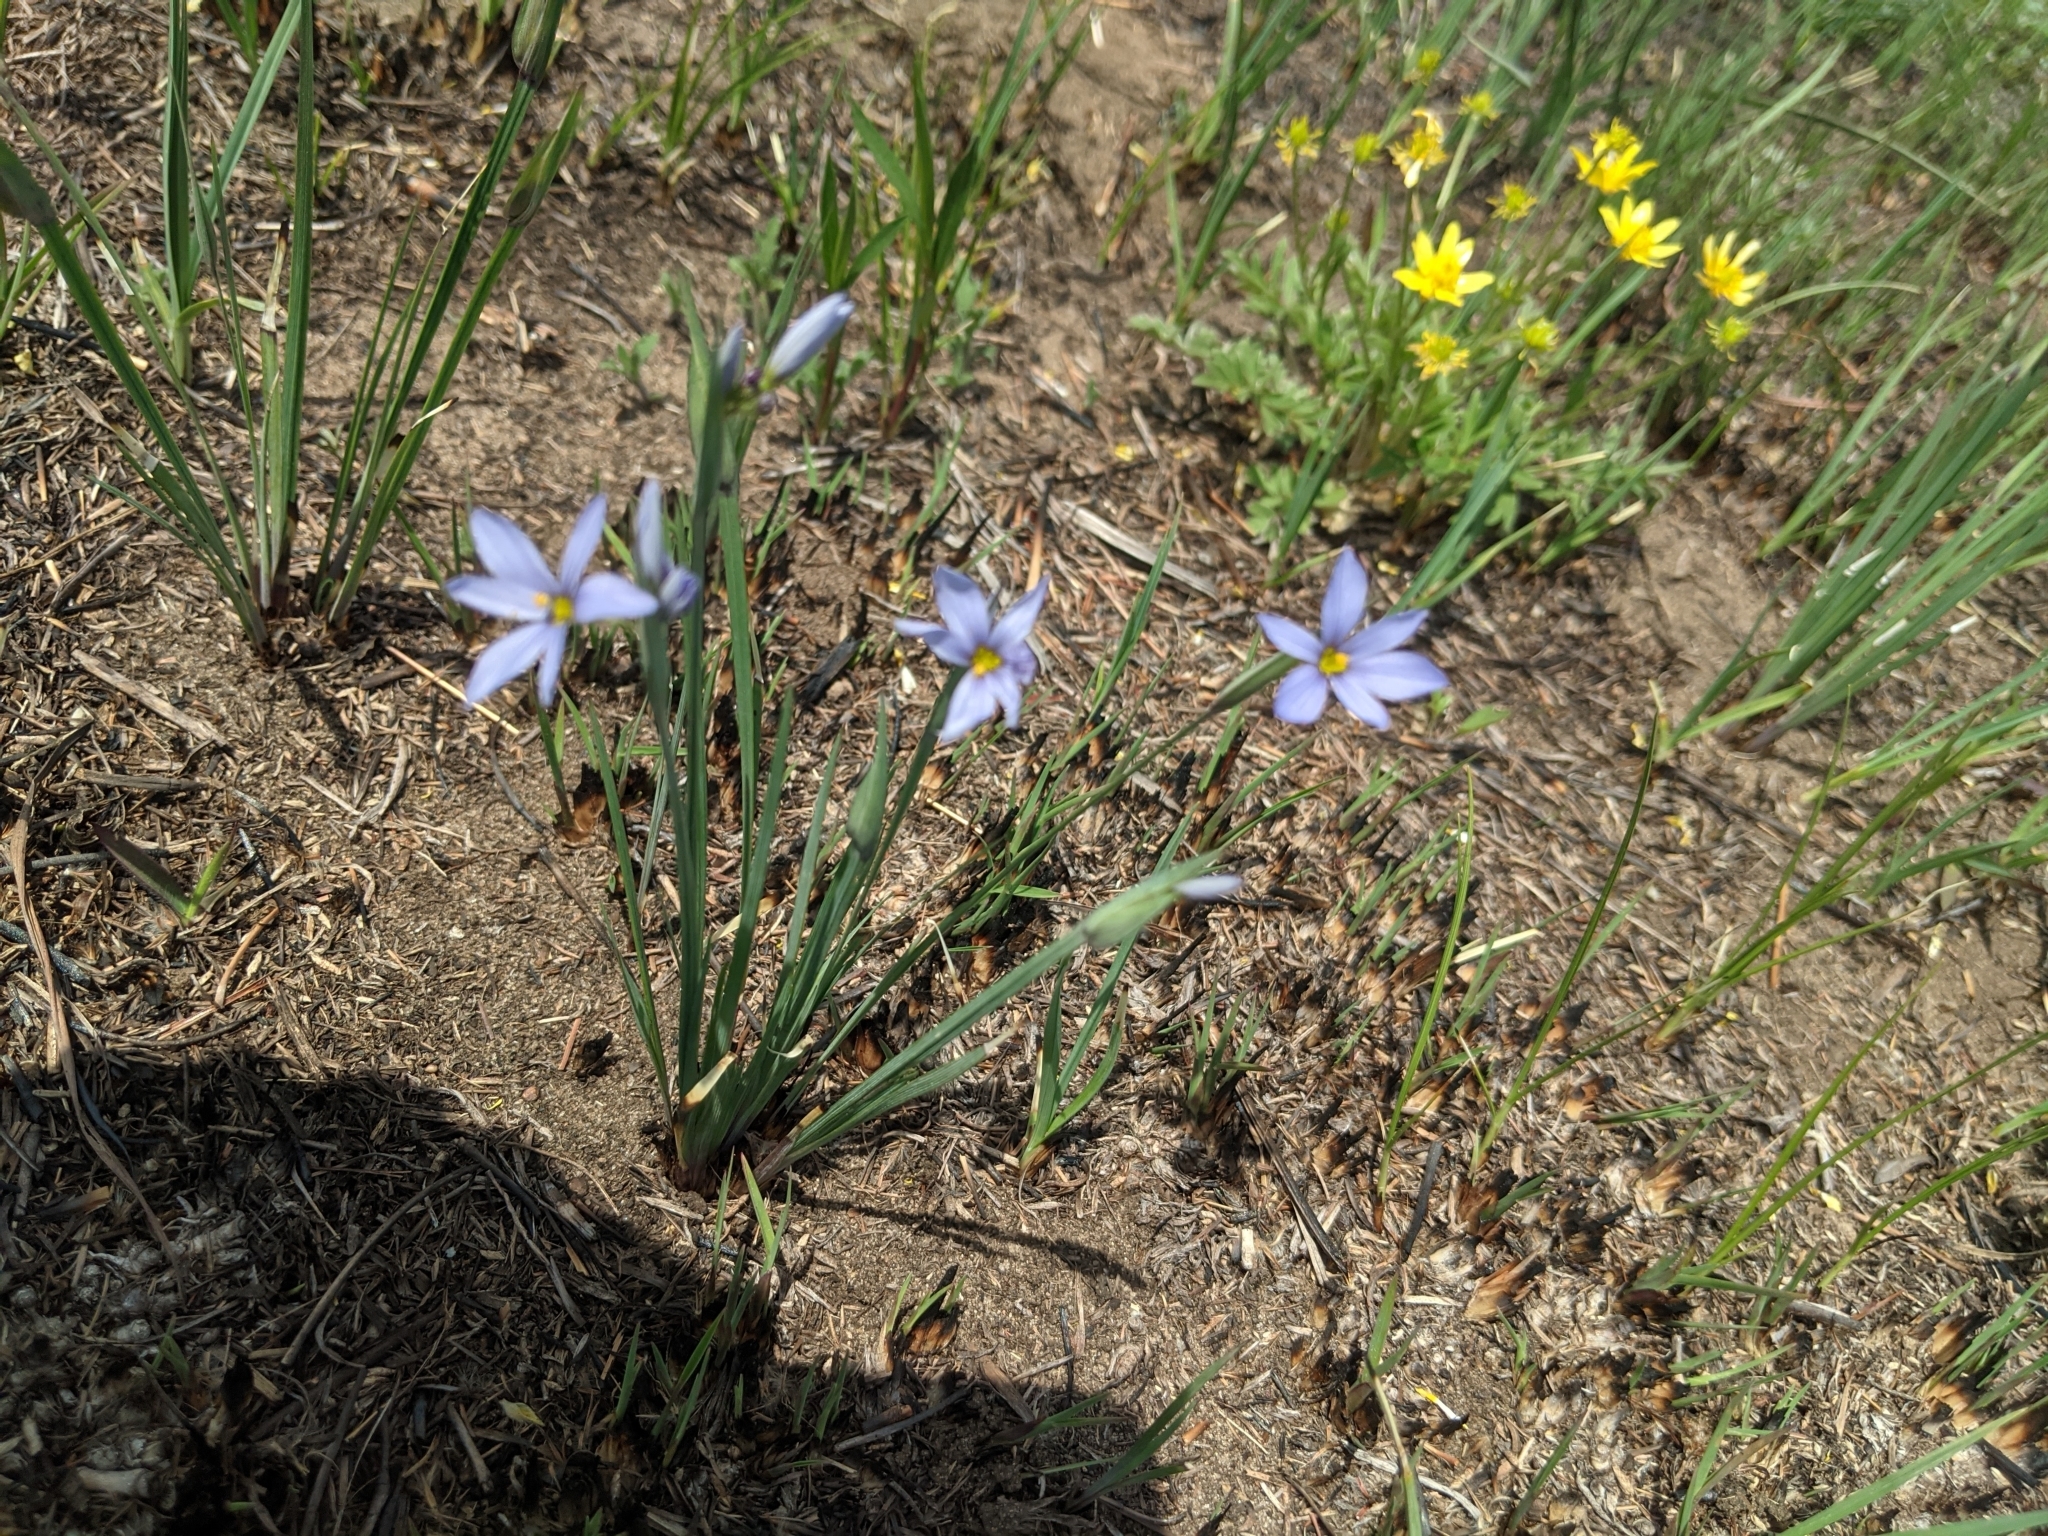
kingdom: Plantae
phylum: Tracheophyta
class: Liliopsida
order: Asparagales
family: Iridaceae
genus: Sisyrinchium
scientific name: Sisyrinchium campestre
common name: Prairie blue-eyed-grass
